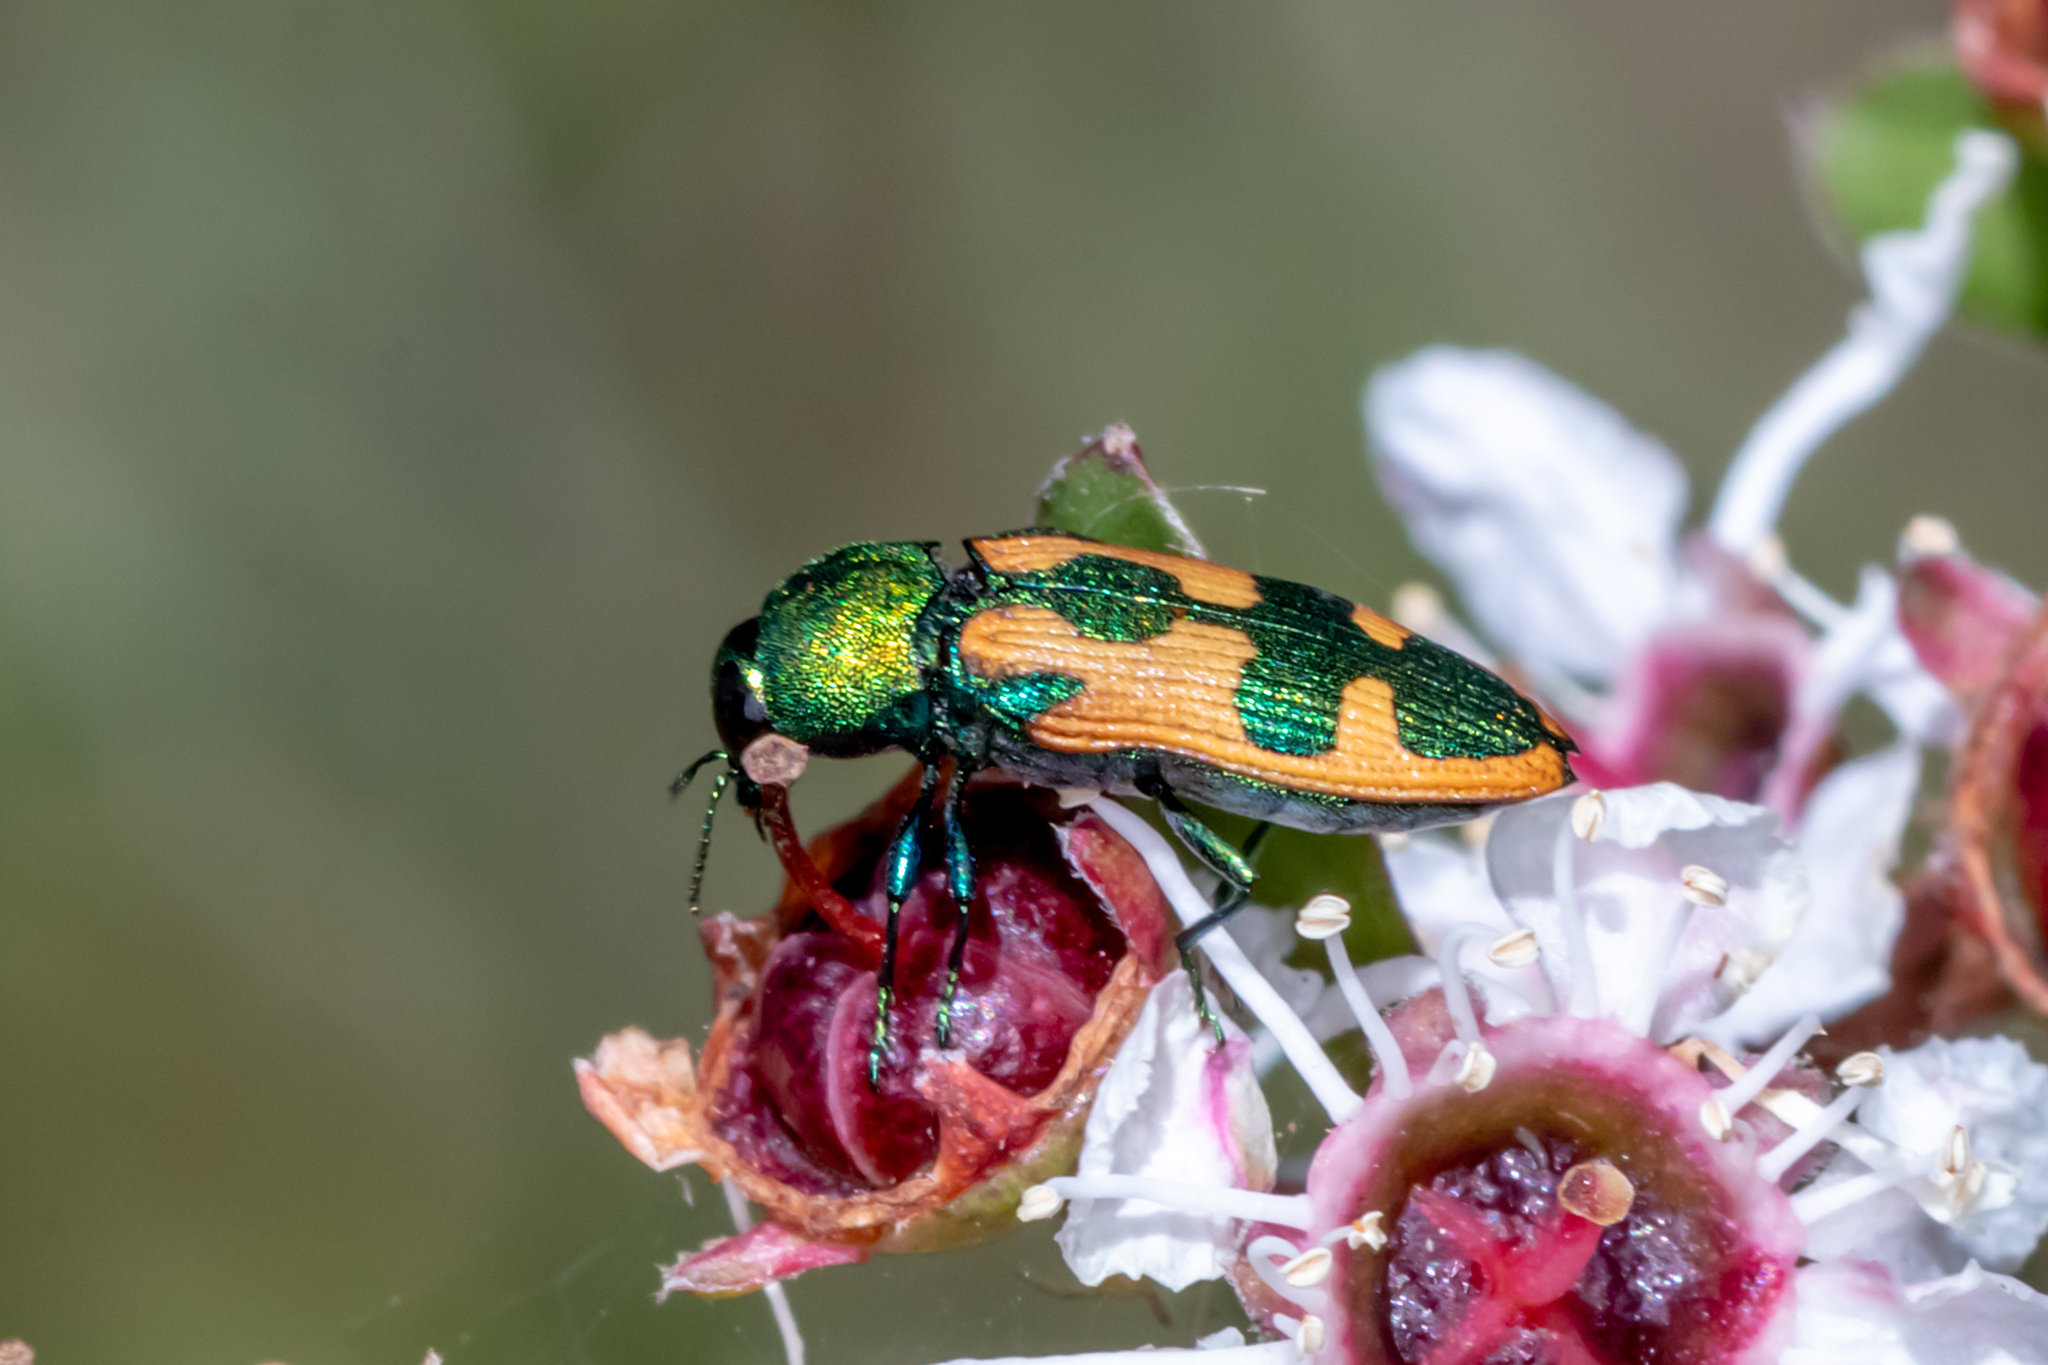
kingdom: Animalia
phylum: Arthropoda
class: Insecta
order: Coleoptera
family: Buprestidae
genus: Castiarina
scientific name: Castiarina hilaris
